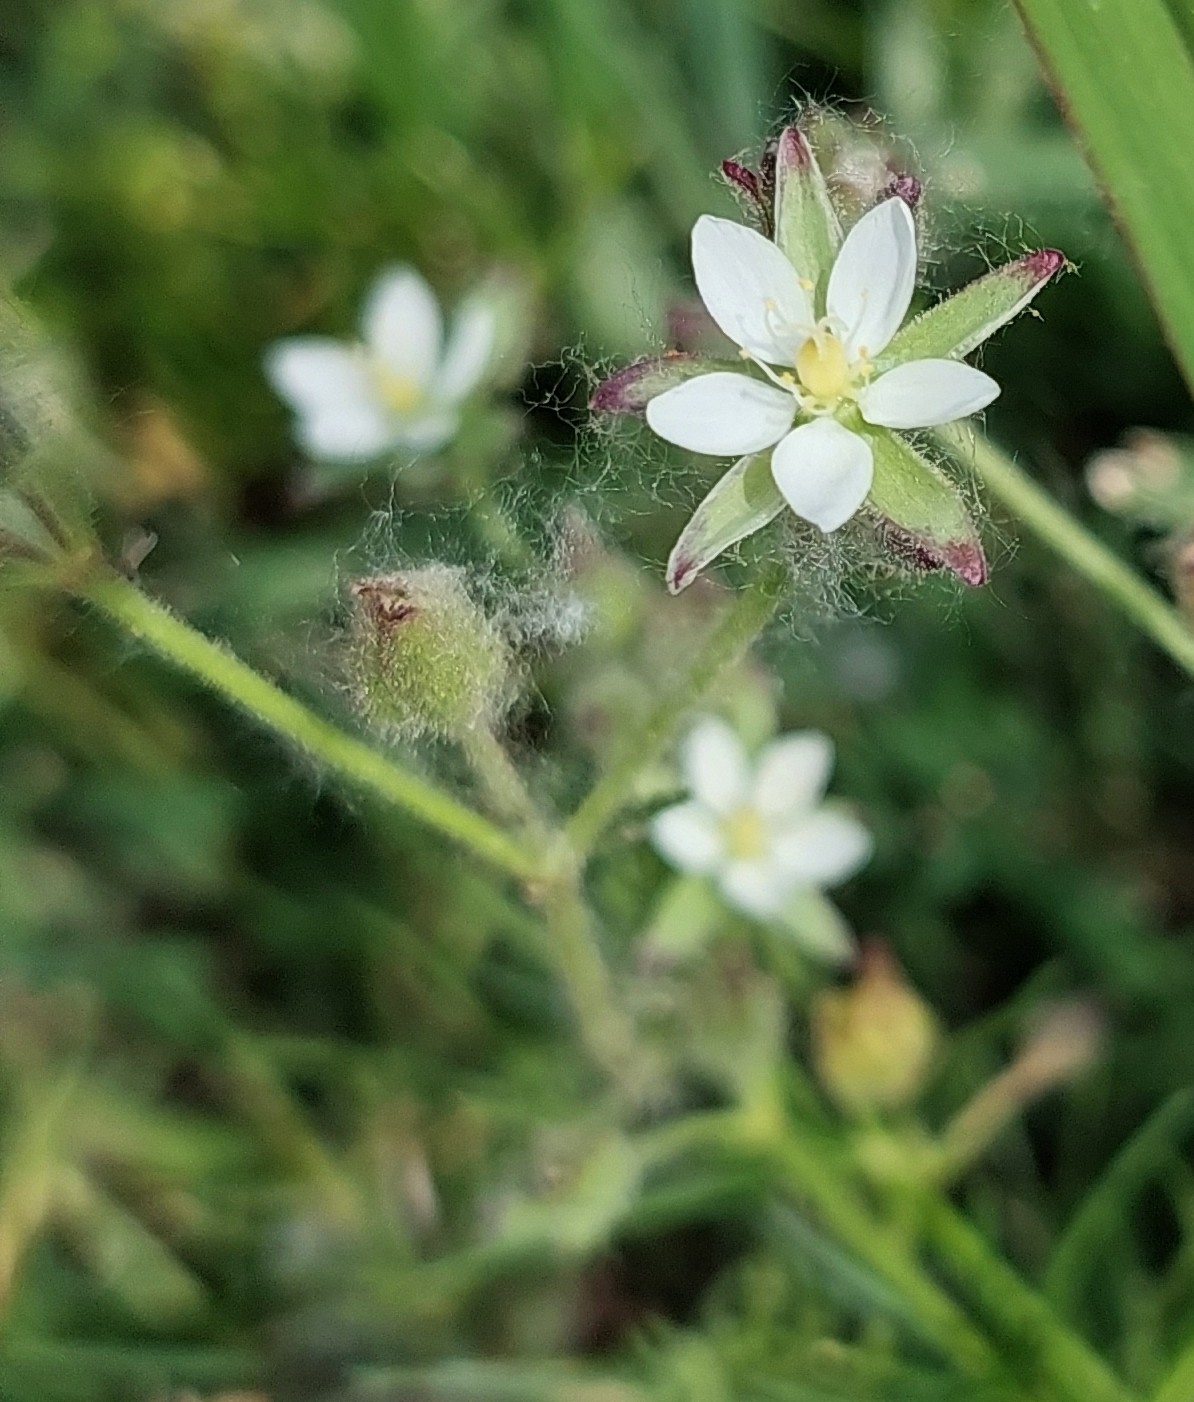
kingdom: Plantae
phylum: Tracheophyta
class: Magnoliopsida
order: Caryophyllales
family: Caryophyllaceae
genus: Spergularia
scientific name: Spergularia marina
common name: Lesser sea-spurrey
